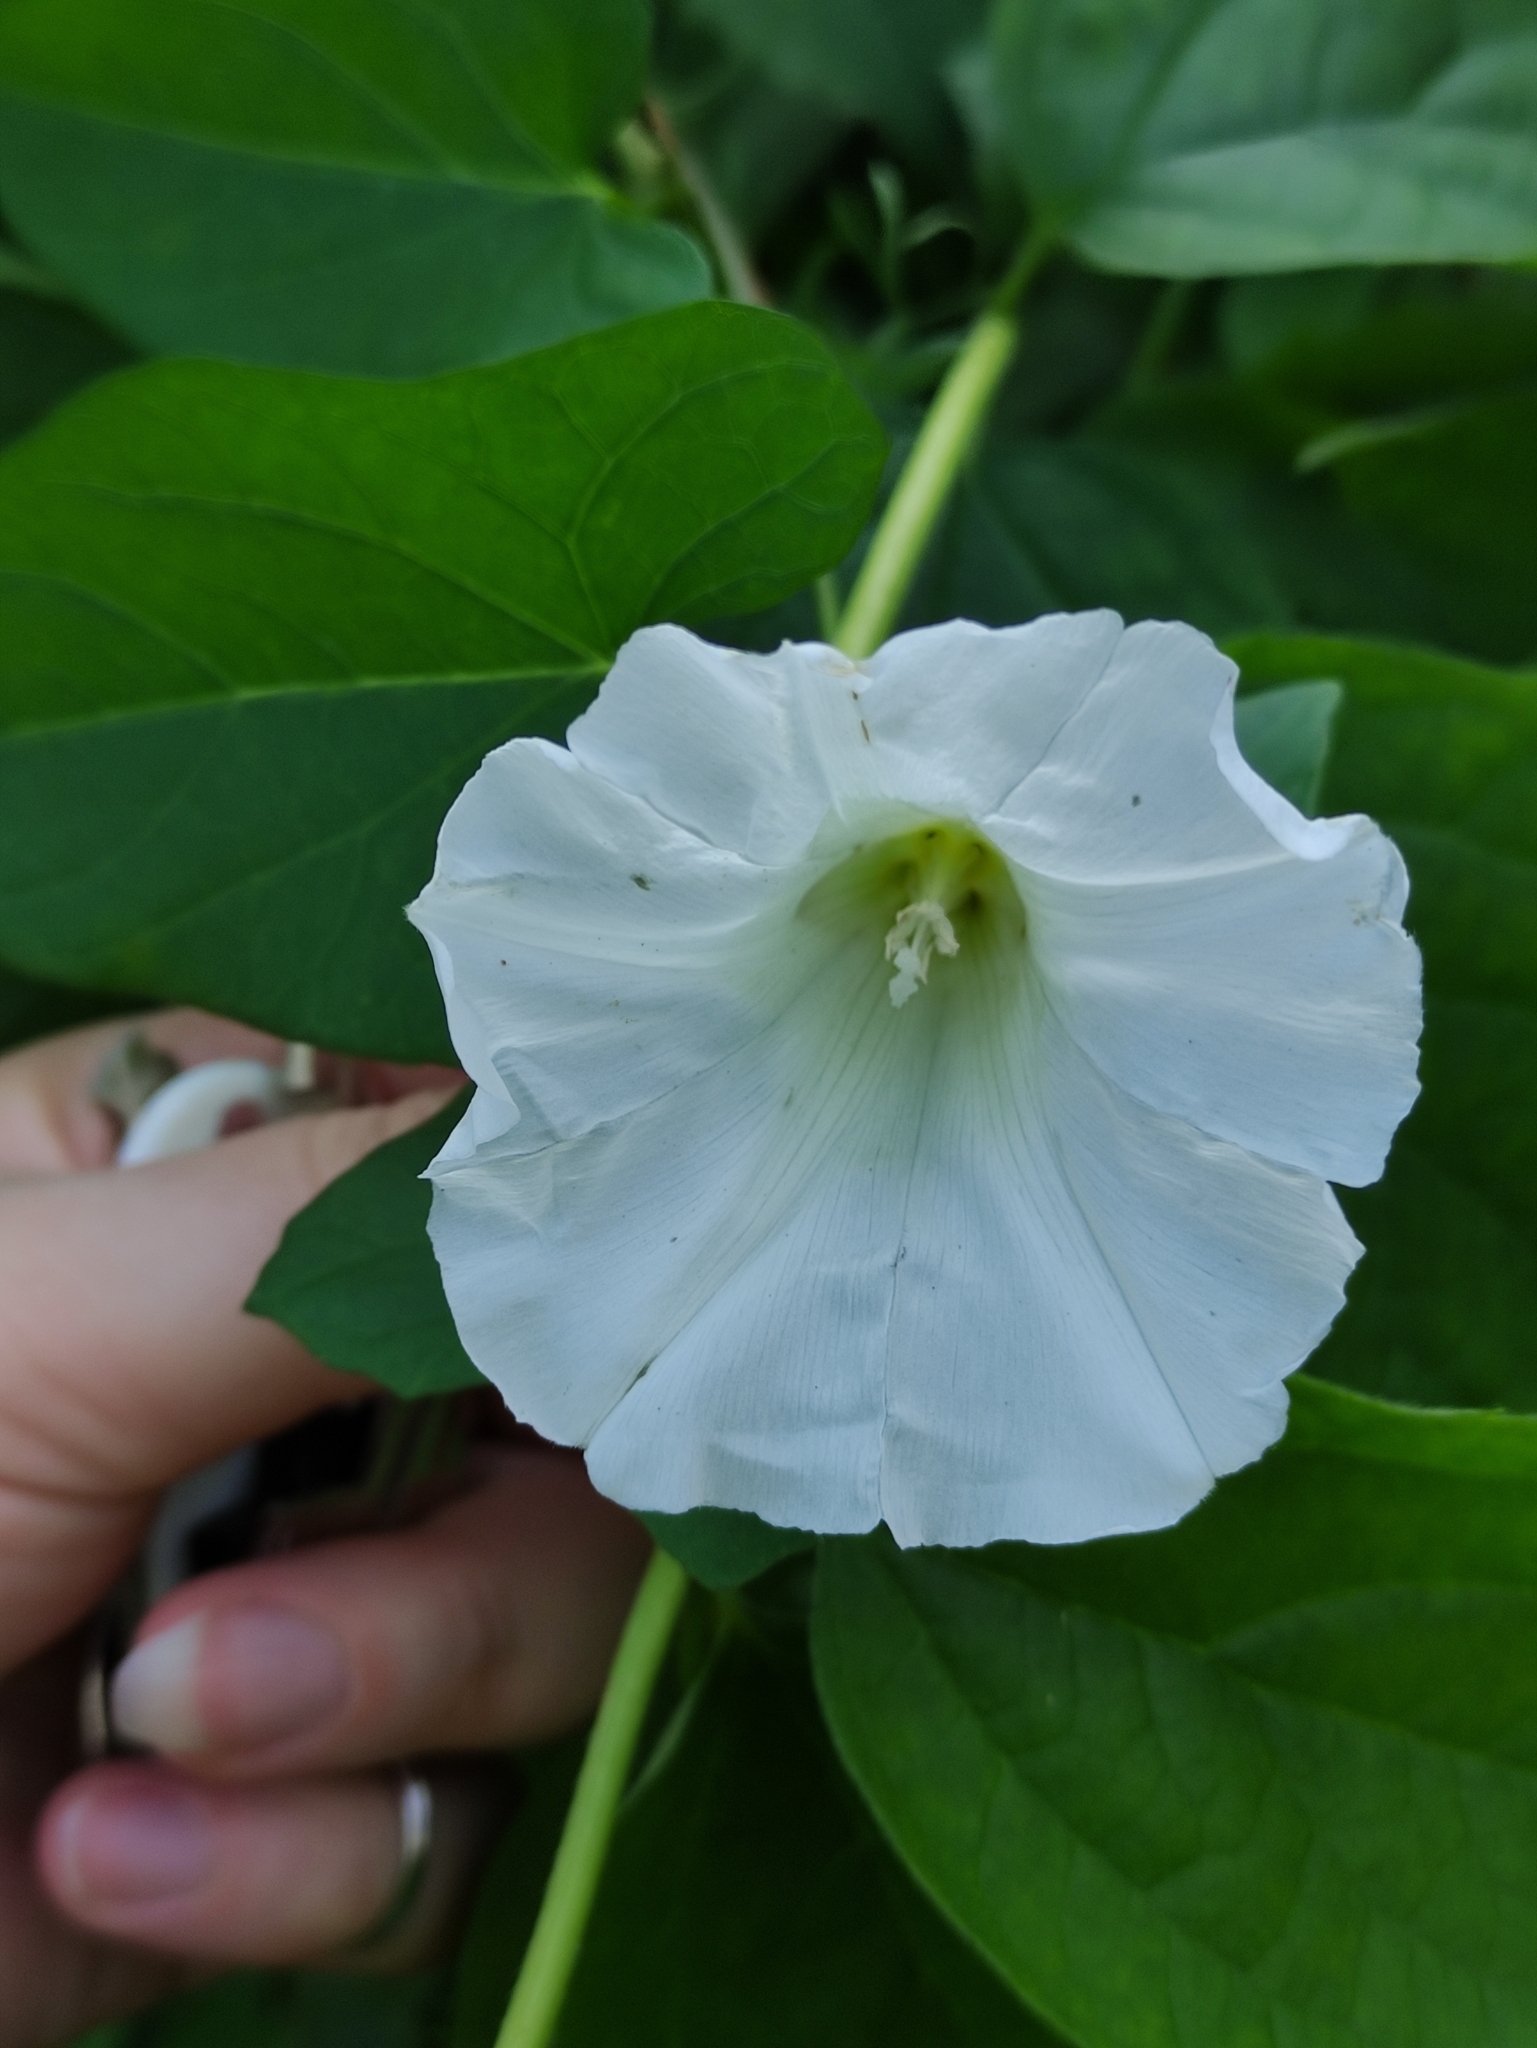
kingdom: Plantae
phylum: Tracheophyta
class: Magnoliopsida
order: Solanales
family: Convolvulaceae
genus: Calystegia
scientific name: Calystegia sepium
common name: Hedge bindweed
